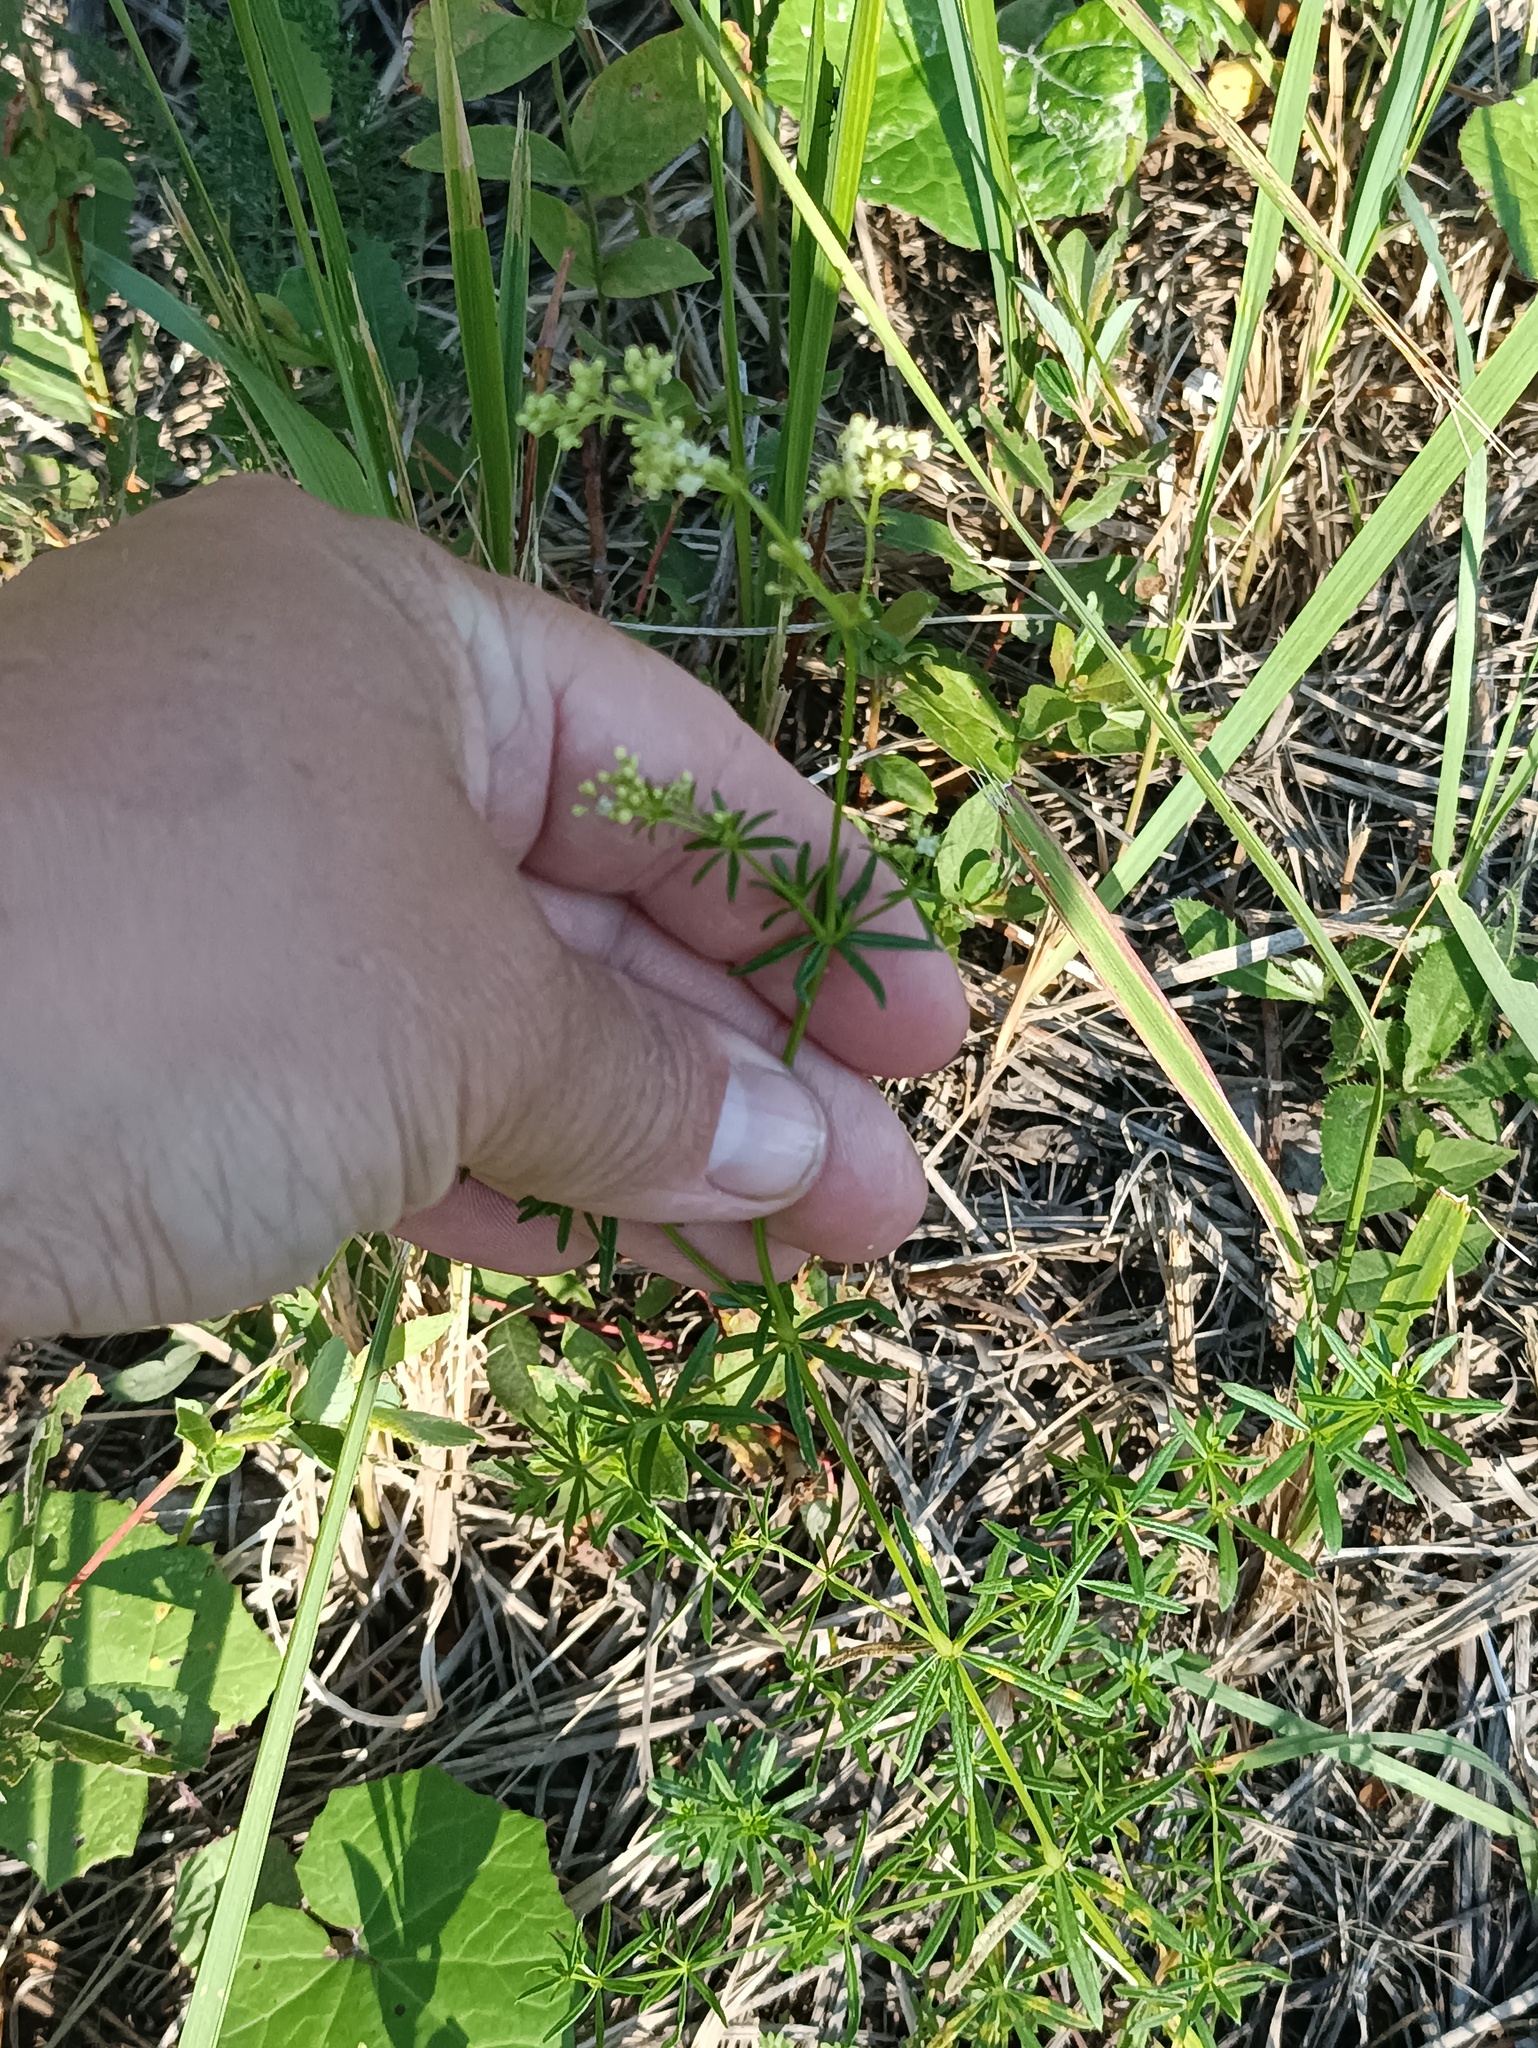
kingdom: Plantae
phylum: Tracheophyta
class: Magnoliopsida
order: Gentianales
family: Rubiaceae
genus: Galium
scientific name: Galium mollugo
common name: Hedge bedstraw
